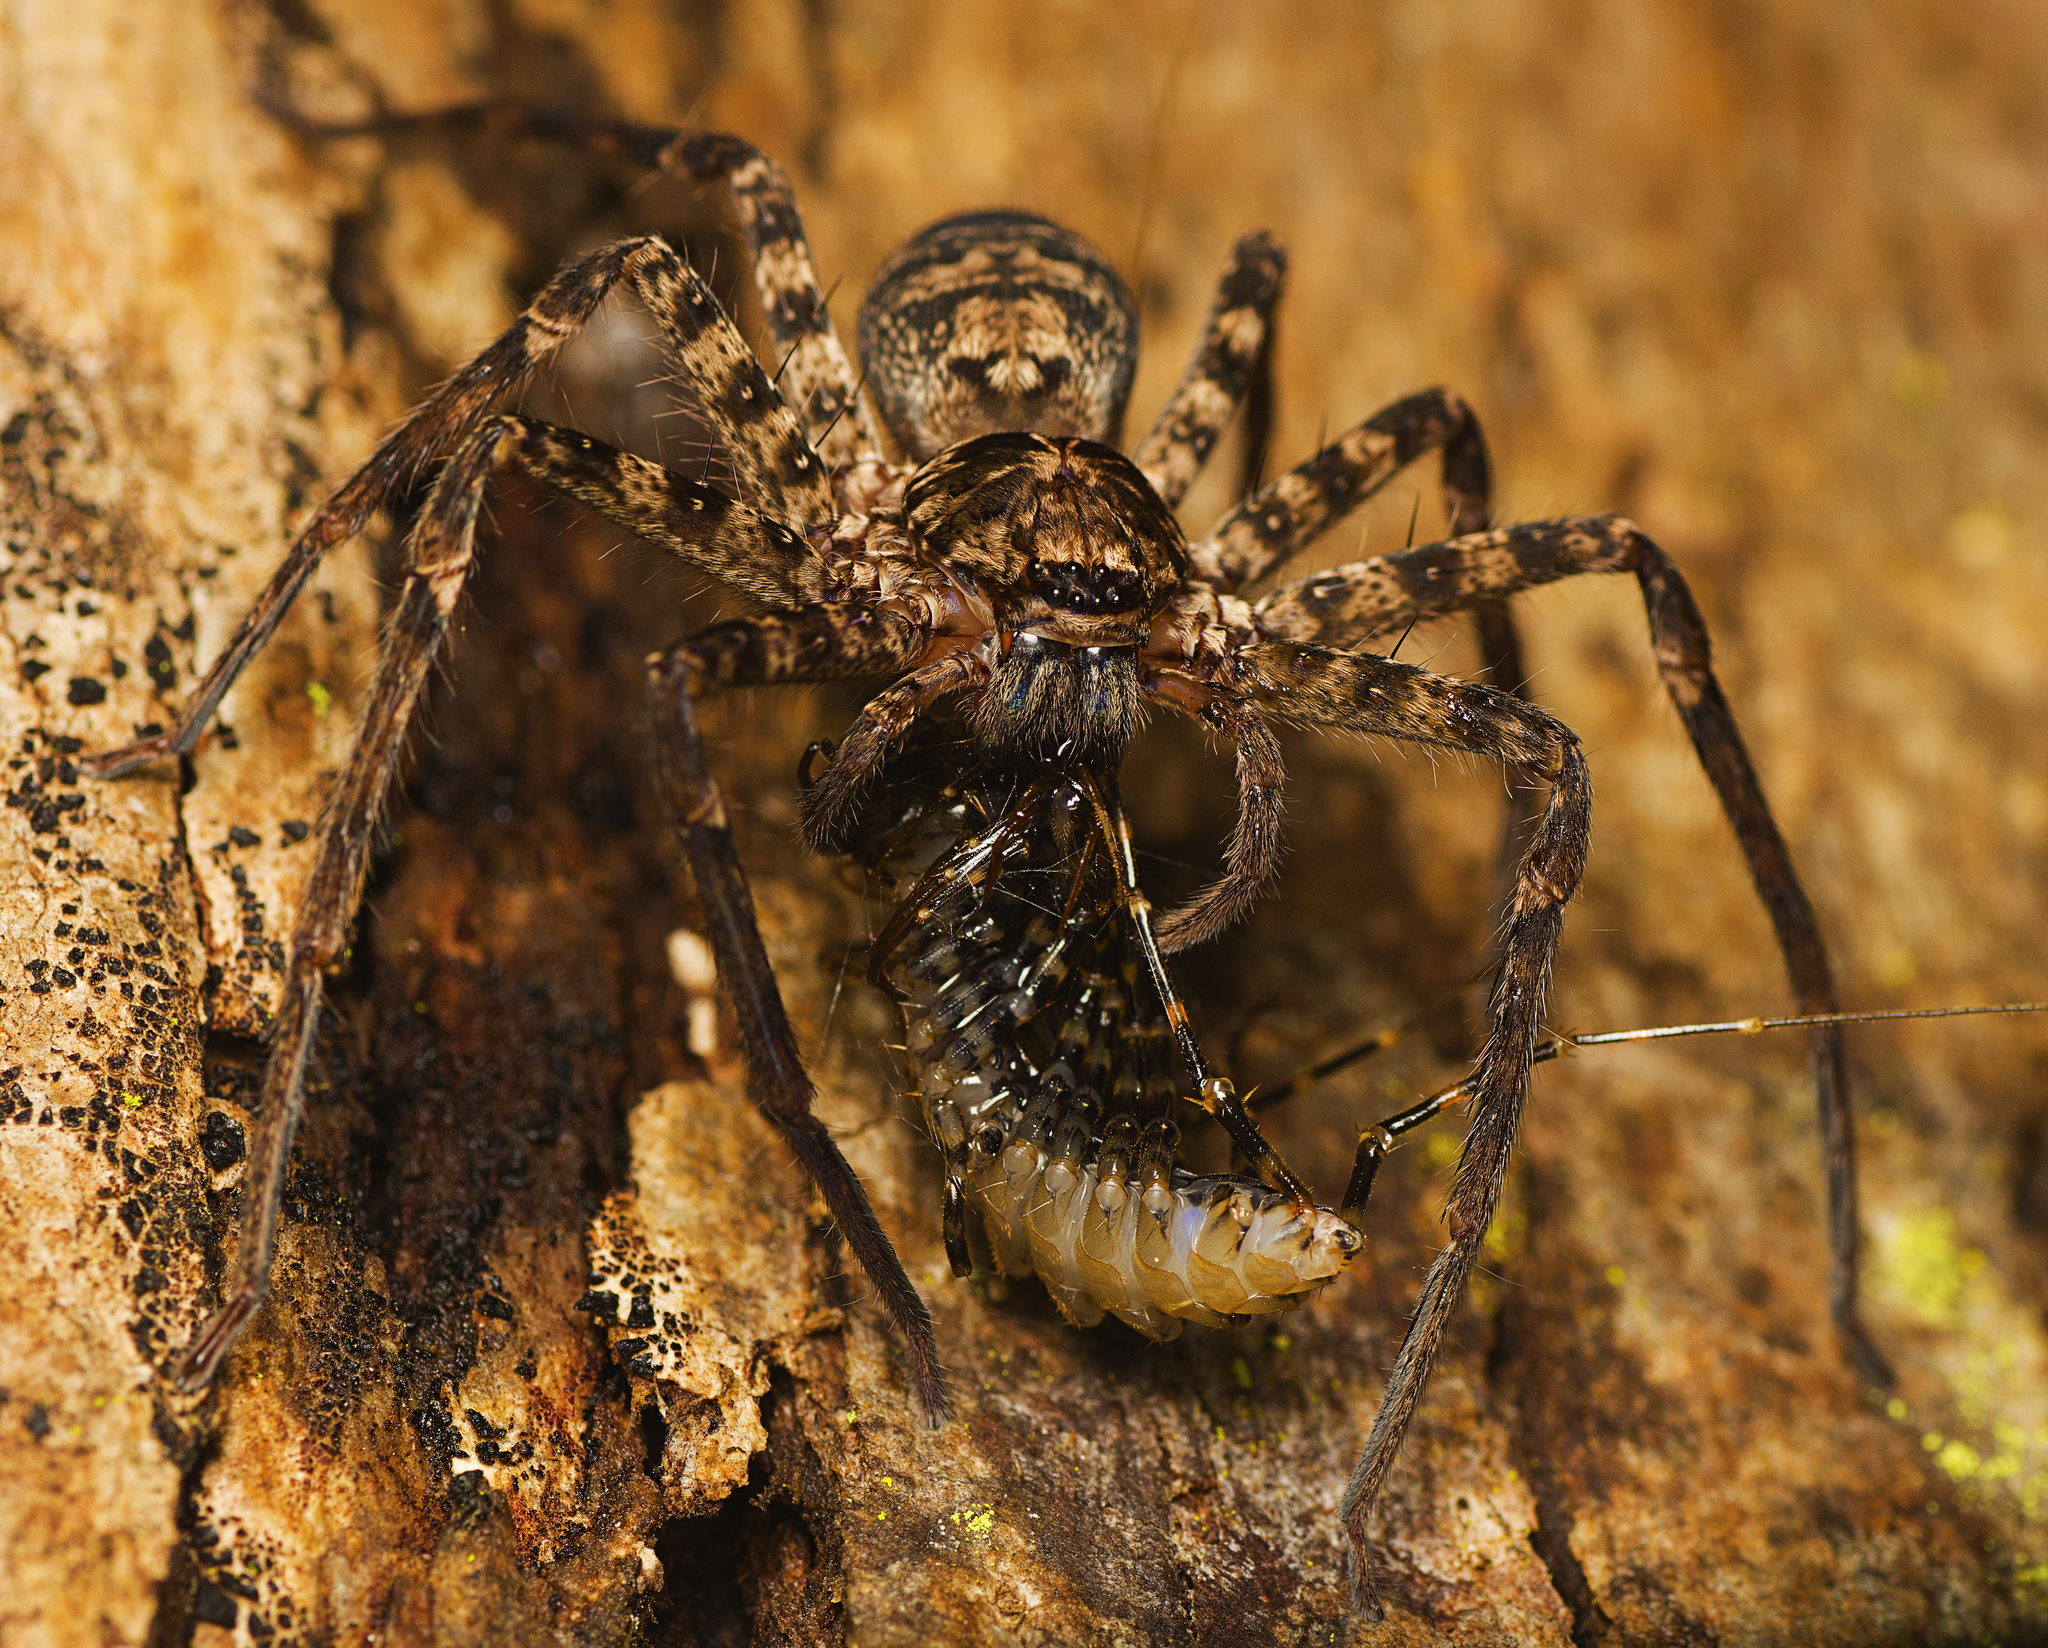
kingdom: Animalia
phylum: Arthropoda
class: Arachnida
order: Araneae
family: Sparassidae
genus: Heteropoda
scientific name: Heteropoda procera
